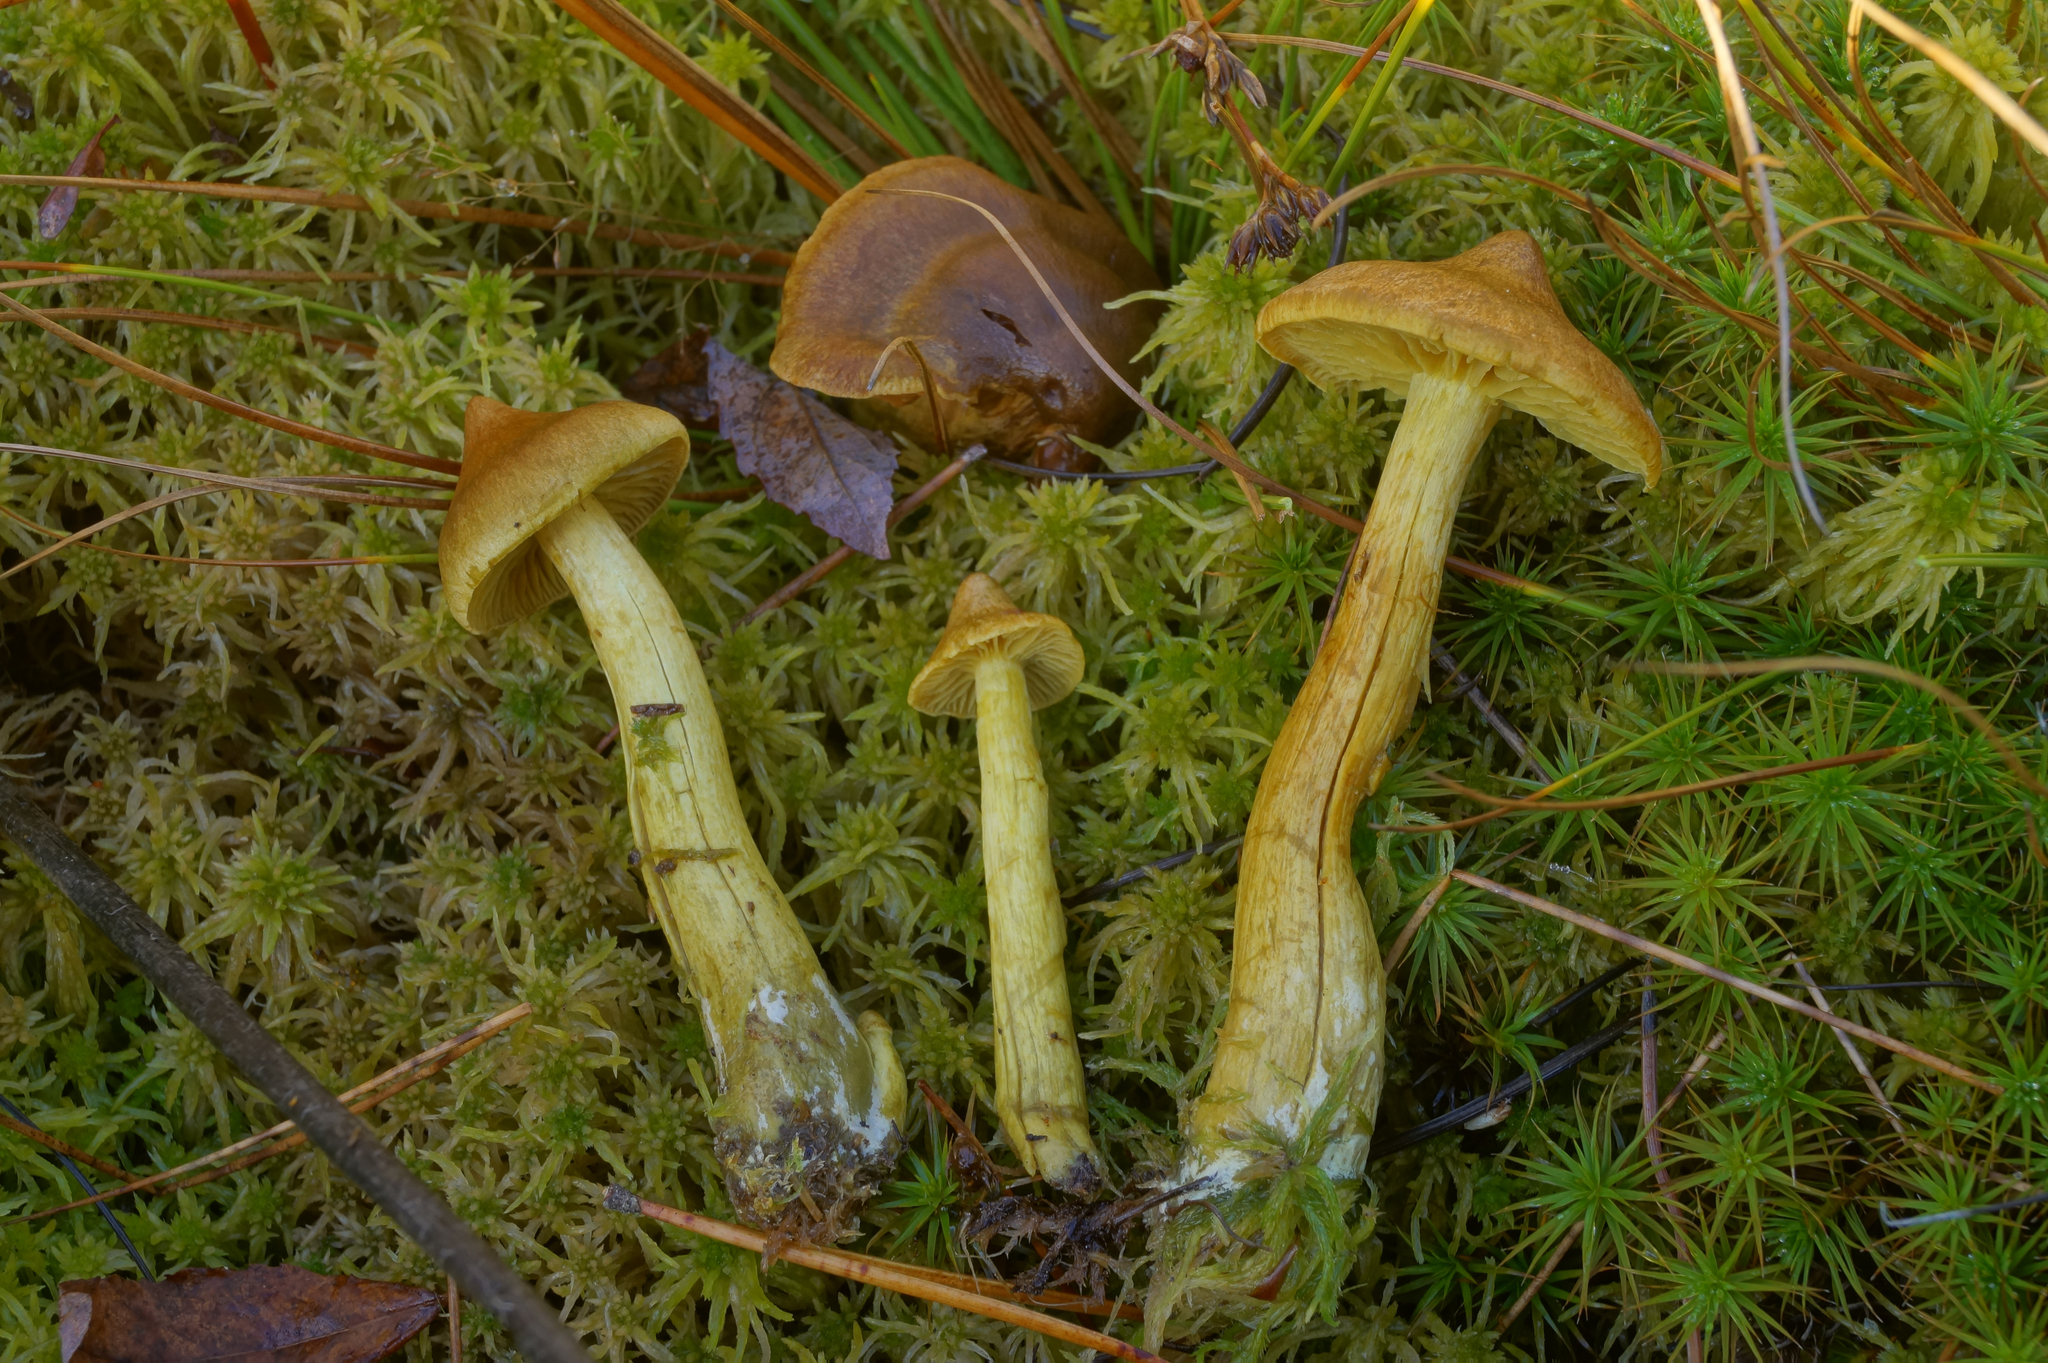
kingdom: Fungi
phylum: Basidiomycota
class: Agaricomycetes
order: Agaricales
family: Cortinariaceae
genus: Cortinarius
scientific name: Cortinarius chrysolitus
